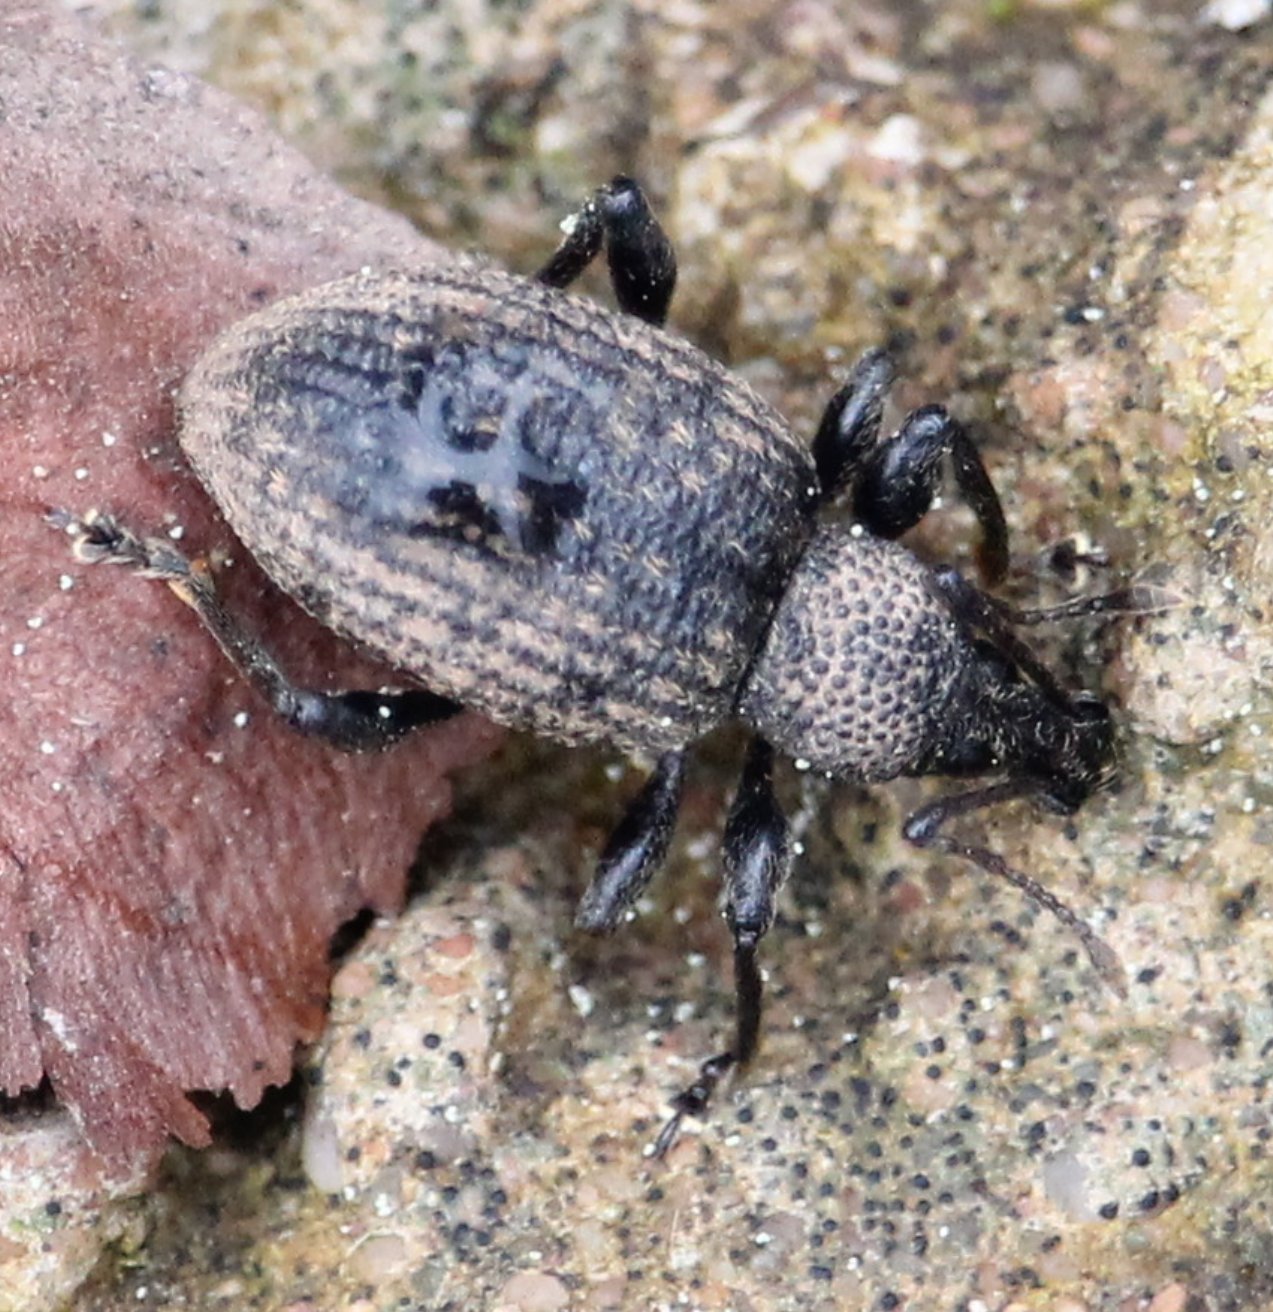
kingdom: Animalia
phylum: Arthropoda
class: Insecta
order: Coleoptera
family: Curculionidae
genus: Otiorhynchus
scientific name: Otiorhynchus sulcatus
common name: Black vine weevil
